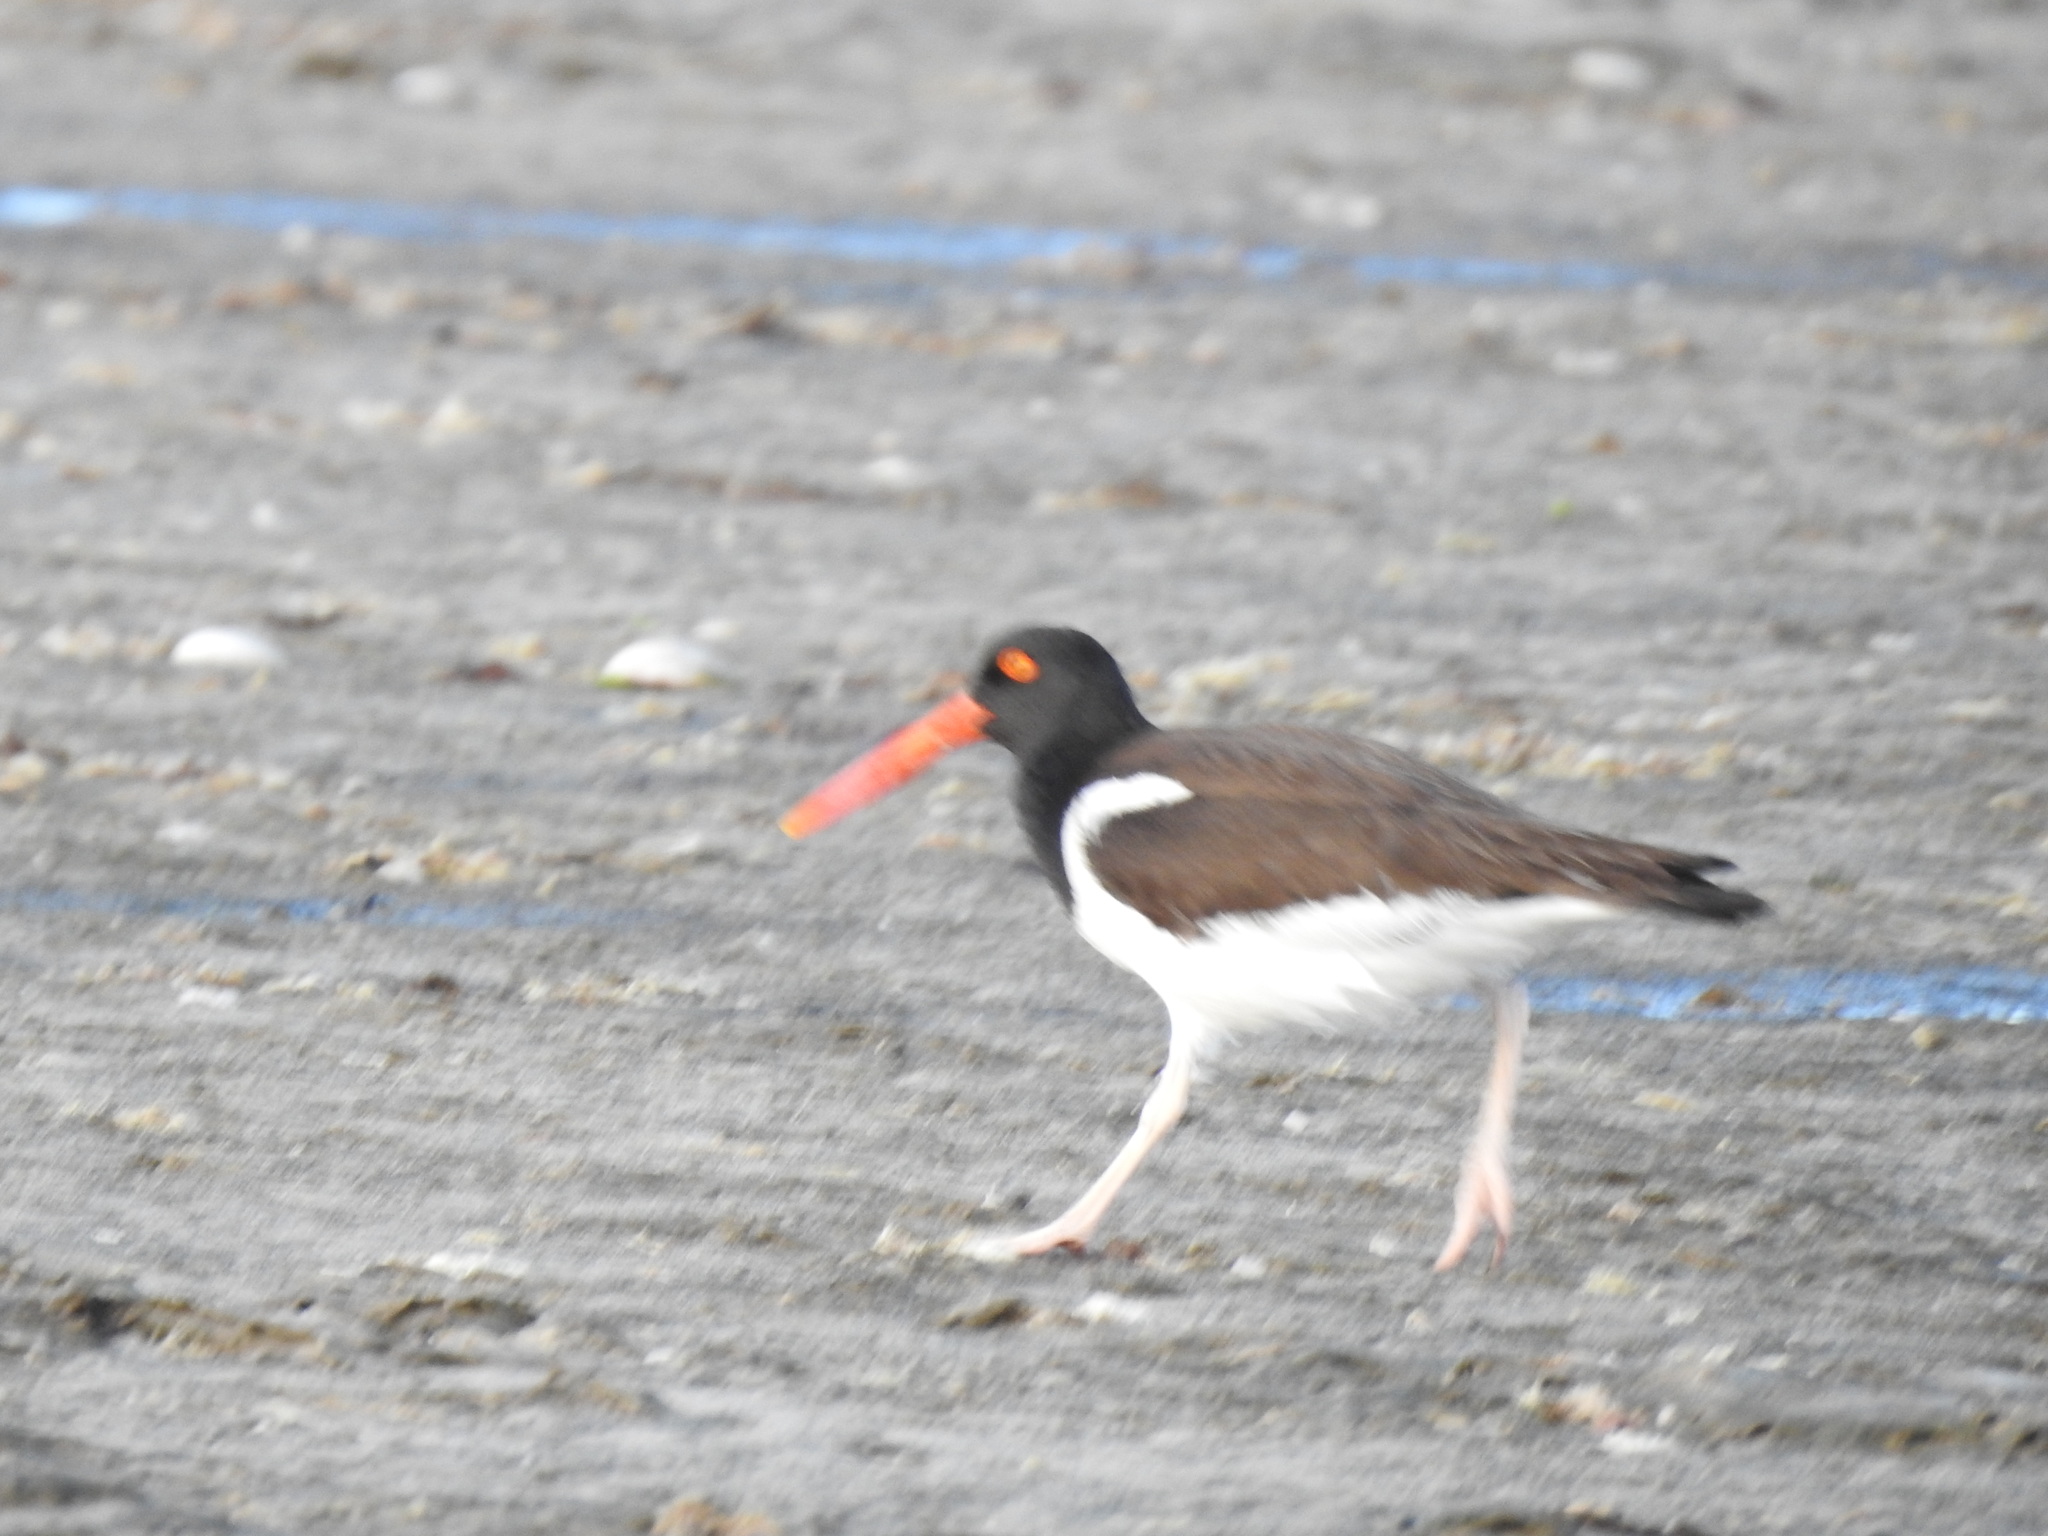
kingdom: Animalia
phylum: Chordata
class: Aves
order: Charadriiformes
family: Haematopodidae
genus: Haematopus
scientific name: Haematopus palliatus
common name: American oystercatcher
